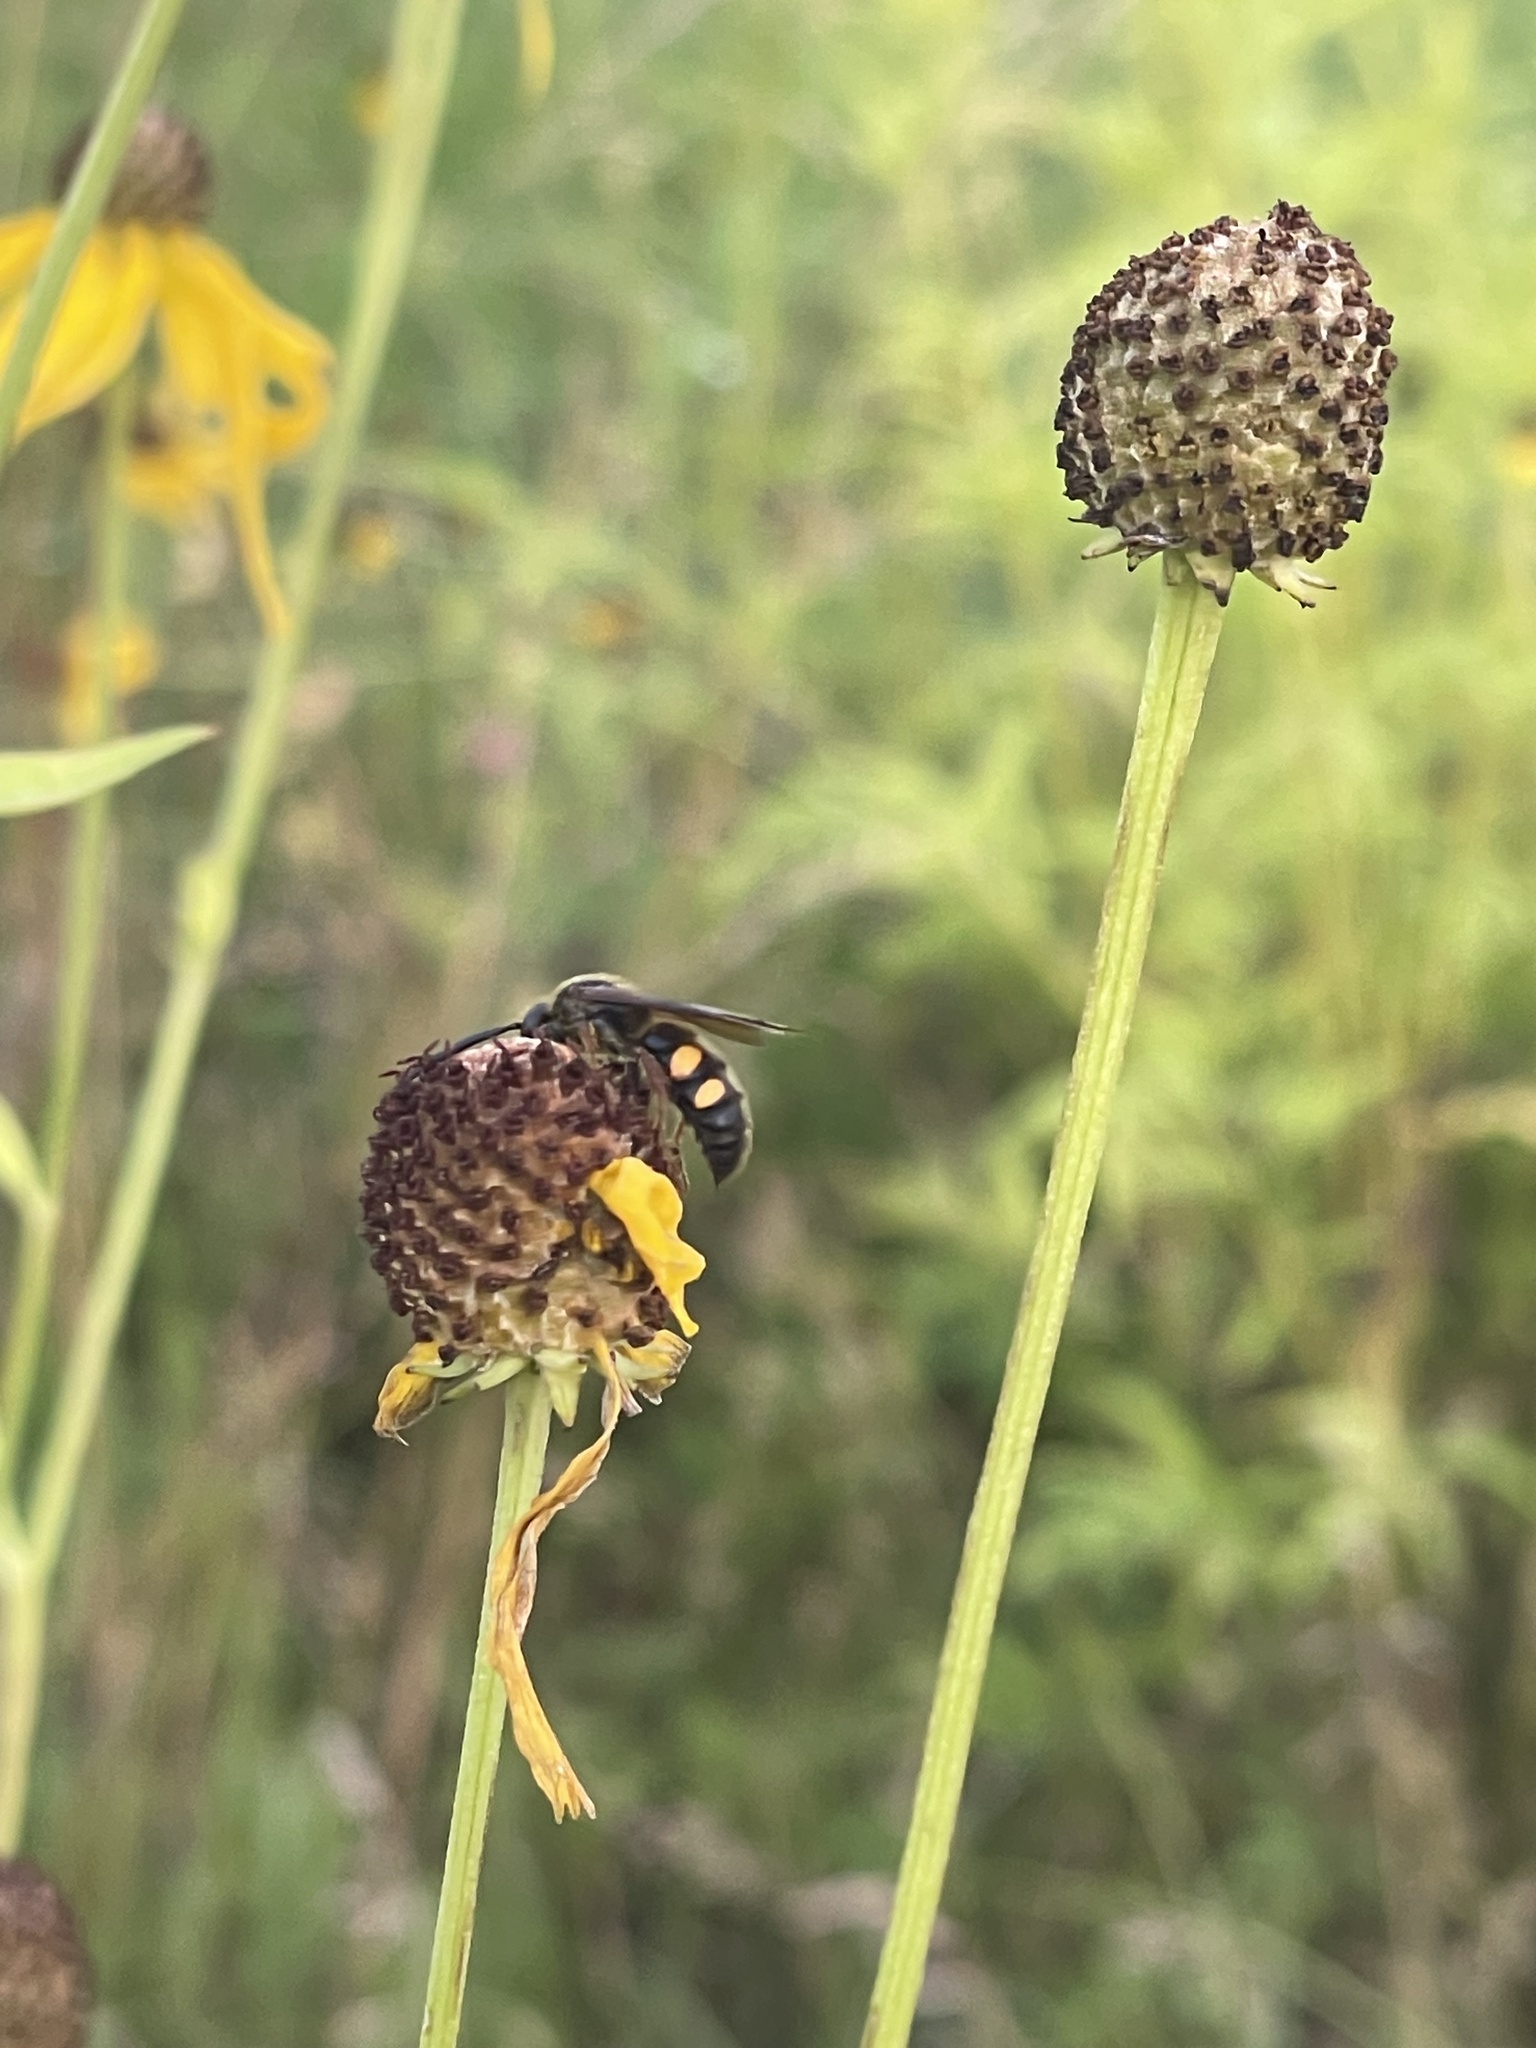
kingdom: Animalia
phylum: Arthropoda
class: Insecta
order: Hymenoptera
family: Scoliidae
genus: Scolia
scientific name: Scolia nobilitata
